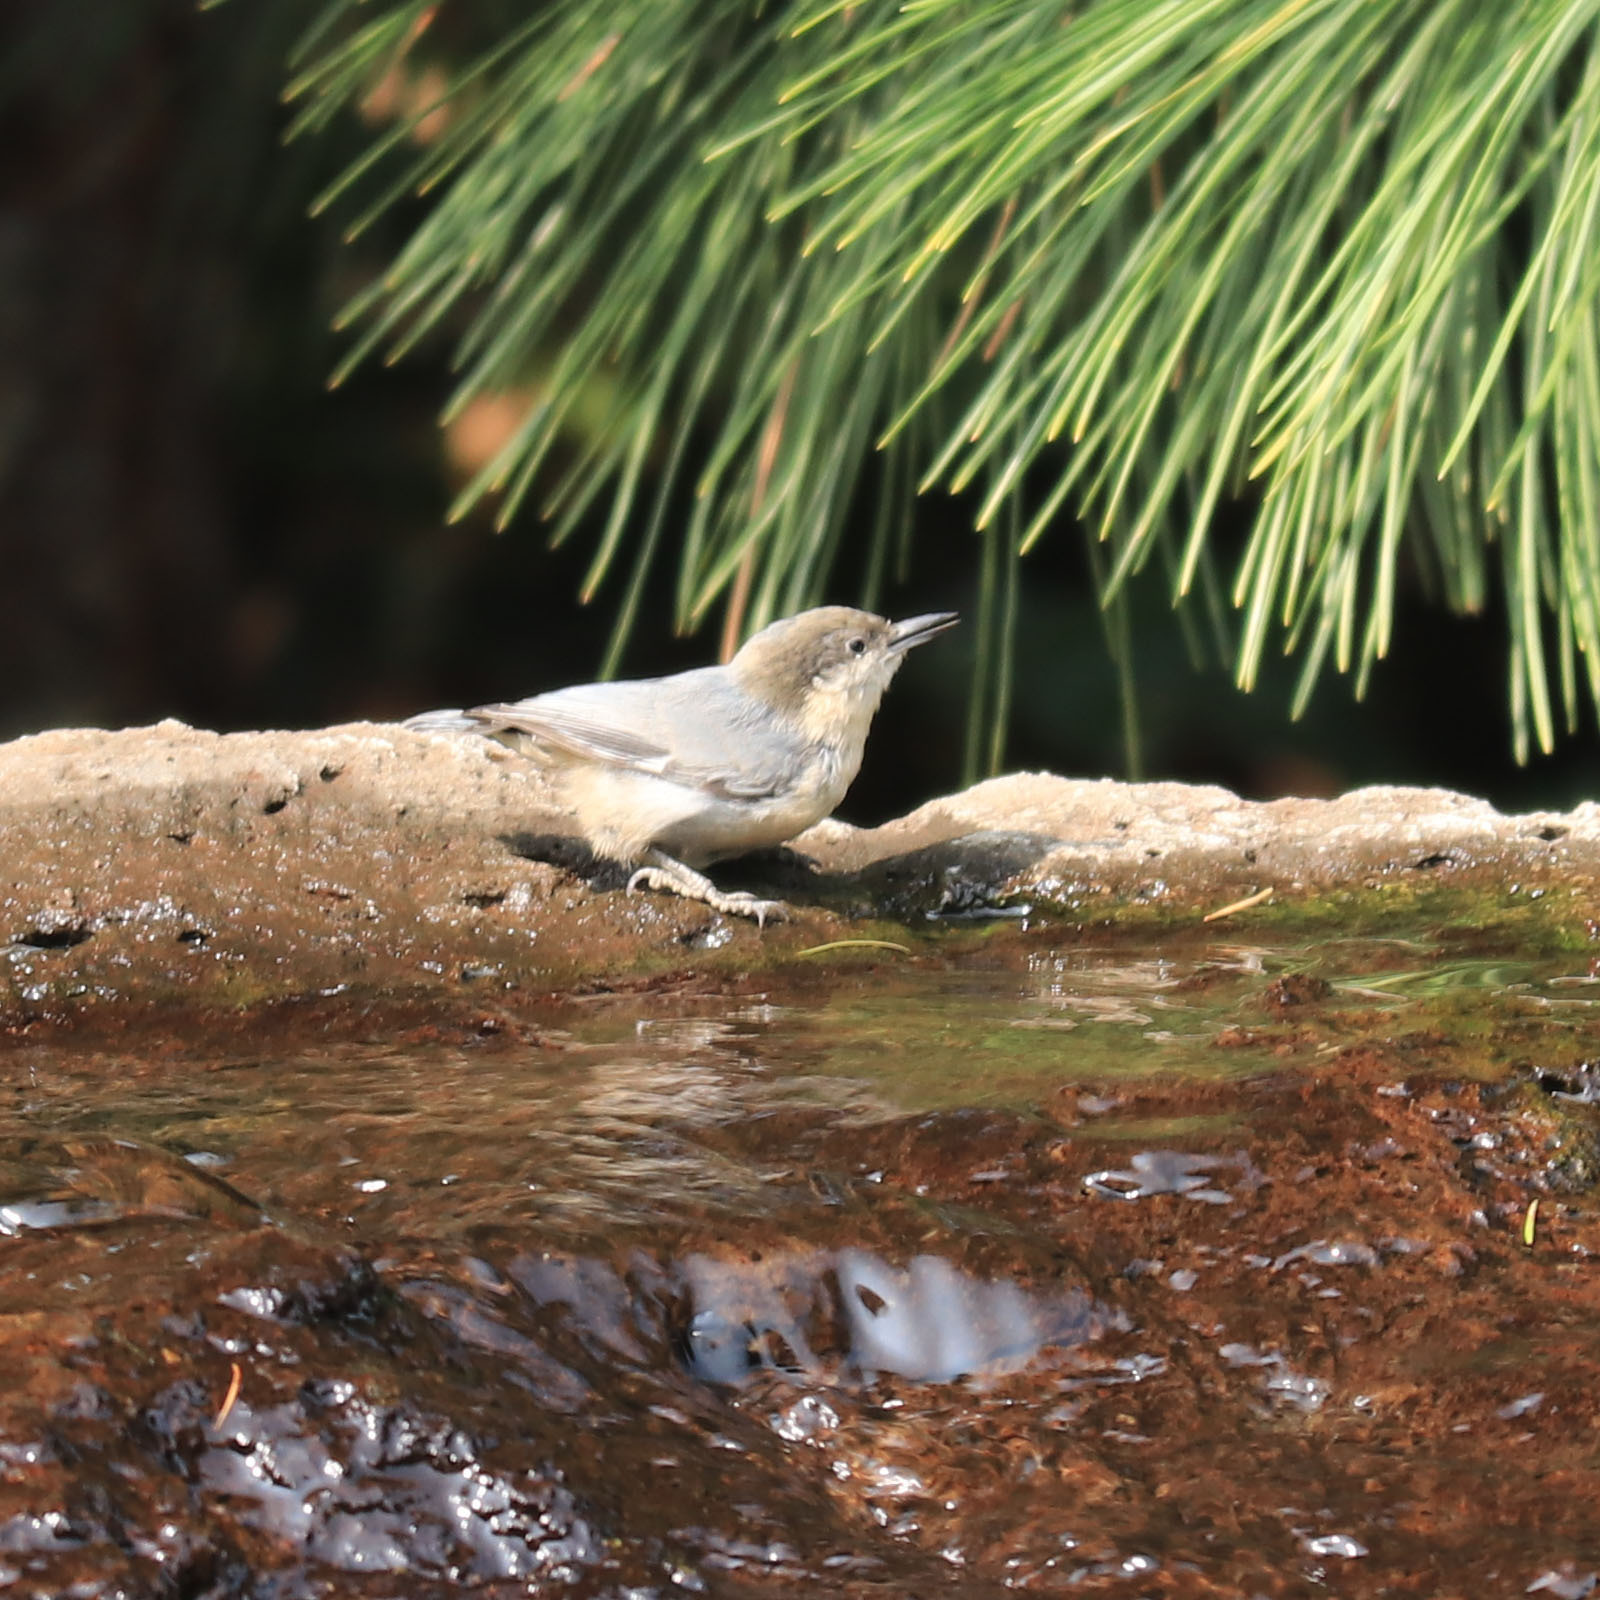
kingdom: Animalia
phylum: Chordata
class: Aves
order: Passeriformes
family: Sittidae
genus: Sitta
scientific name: Sitta pygmaea
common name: Pygmy nuthatch
